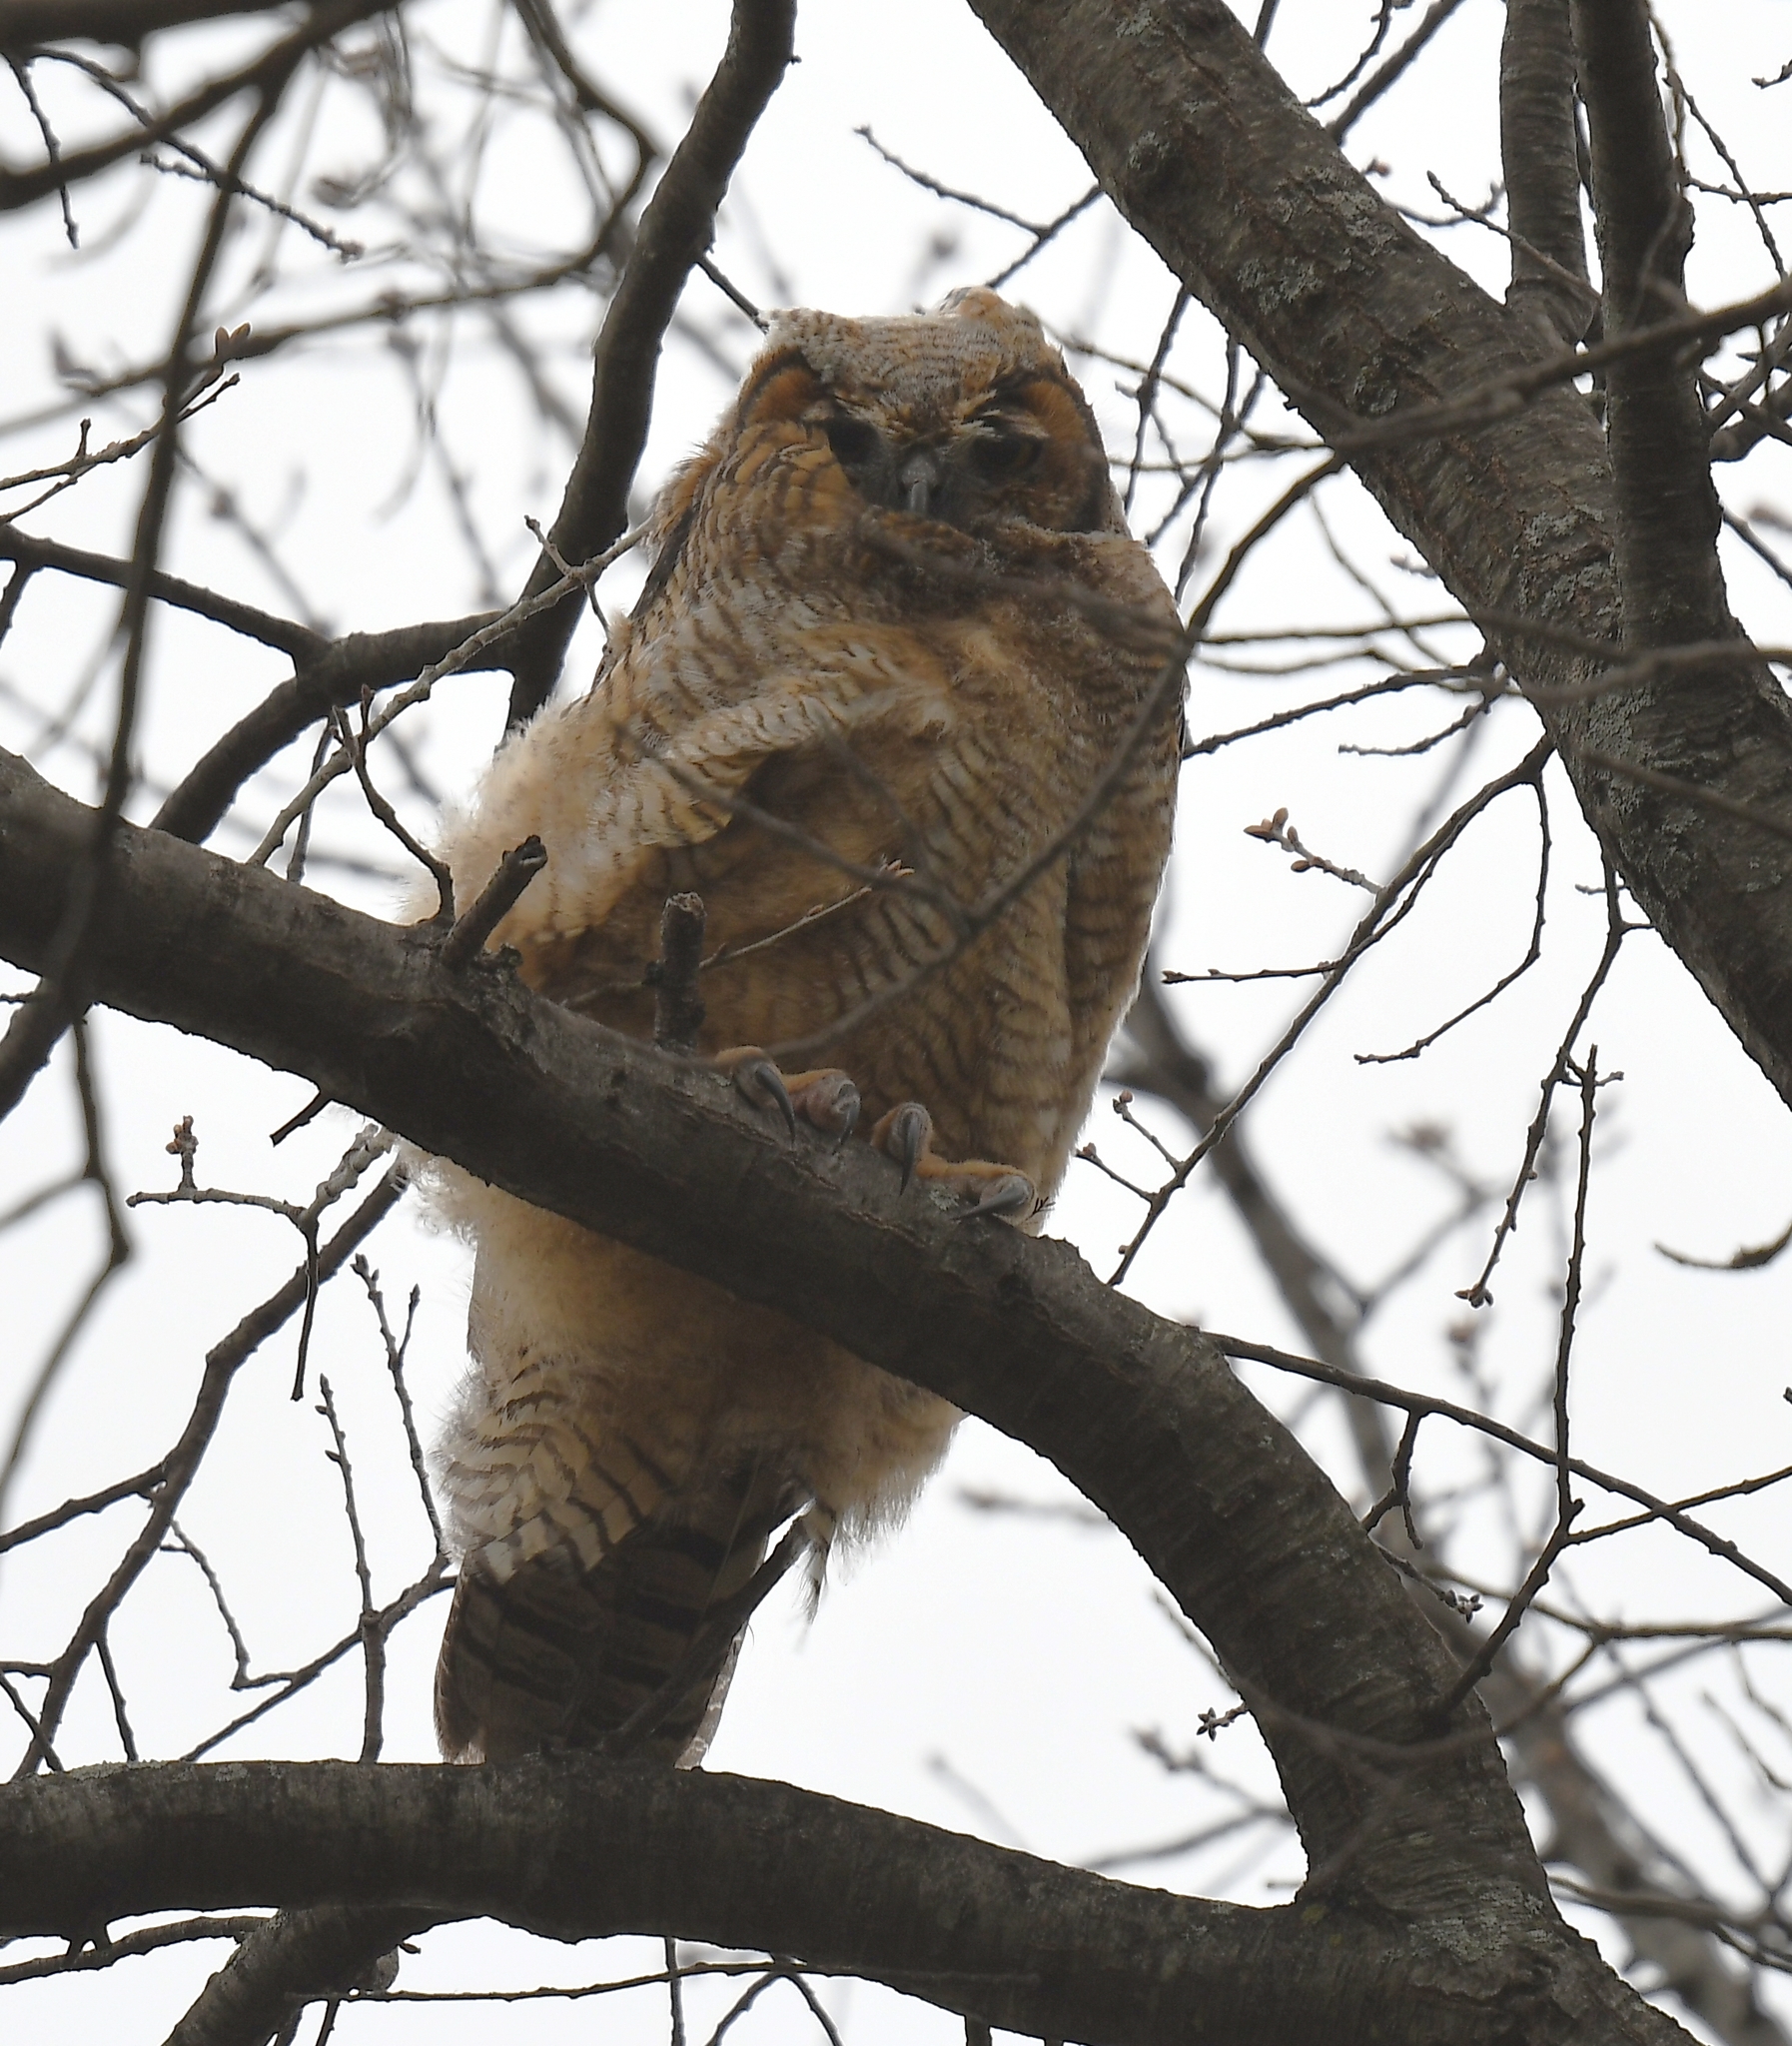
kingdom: Animalia
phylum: Chordata
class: Aves
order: Strigiformes
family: Strigidae
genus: Bubo
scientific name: Bubo virginianus
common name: Great horned owl
